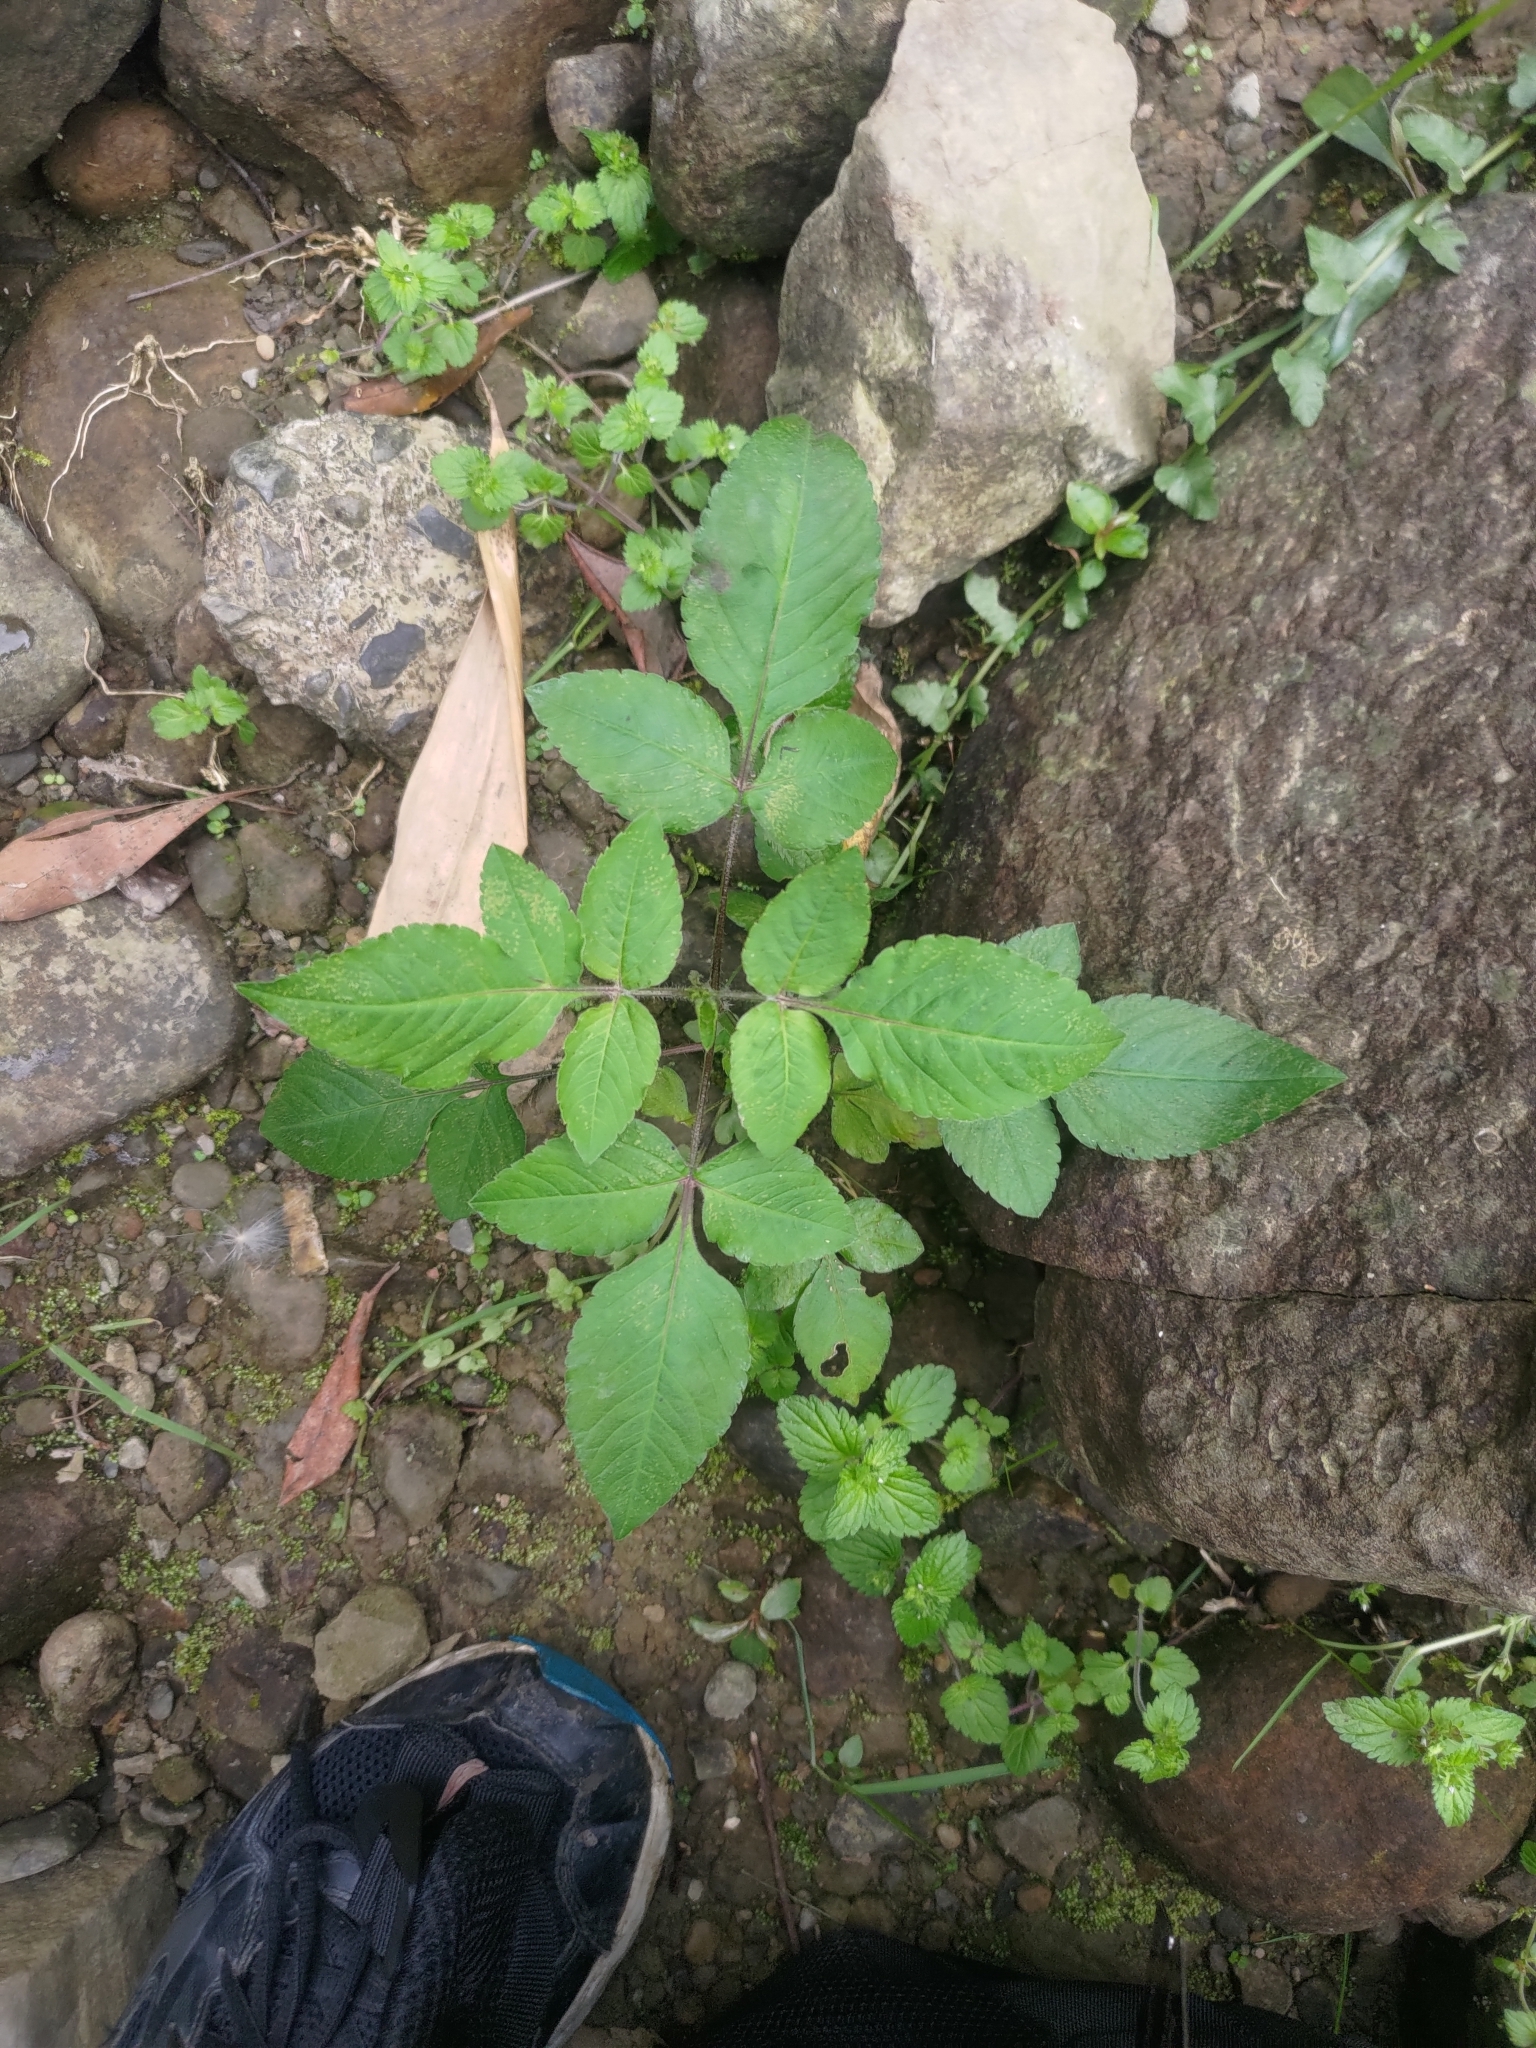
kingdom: Plantae
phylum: Tracheophyta
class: Magnoliopsida
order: Asterales
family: Asteraceae
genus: Bidens
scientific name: Bidens alba
